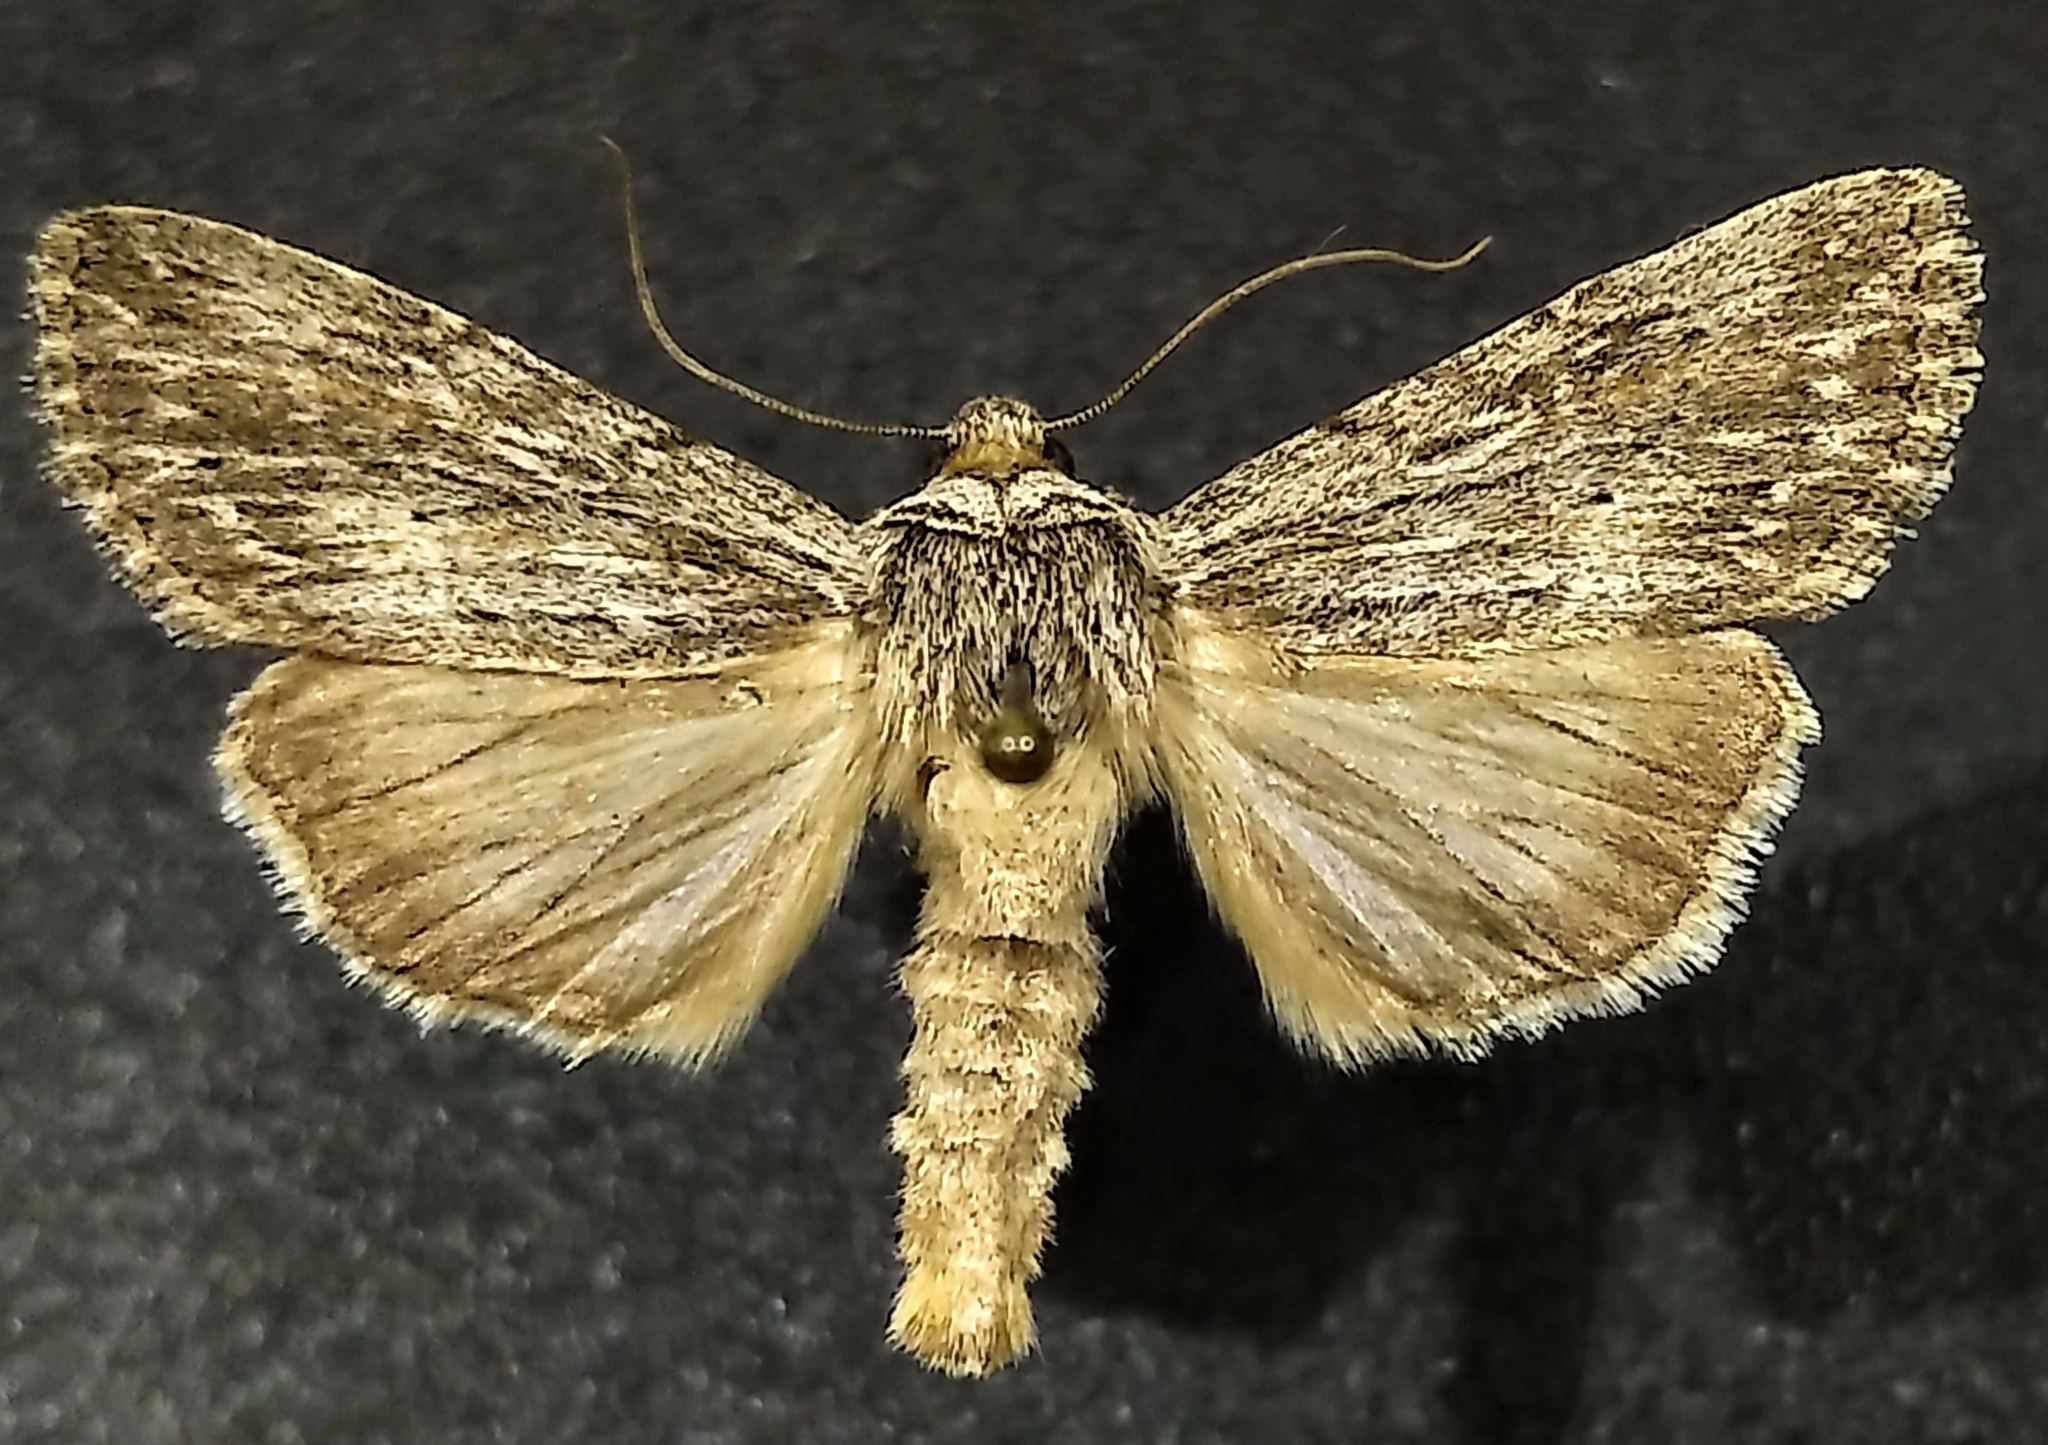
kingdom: Animalia
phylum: Arthropoda
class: Insecta
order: Lepidoptera
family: Noctuidae
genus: Sympistis
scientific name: Sympistis chons
